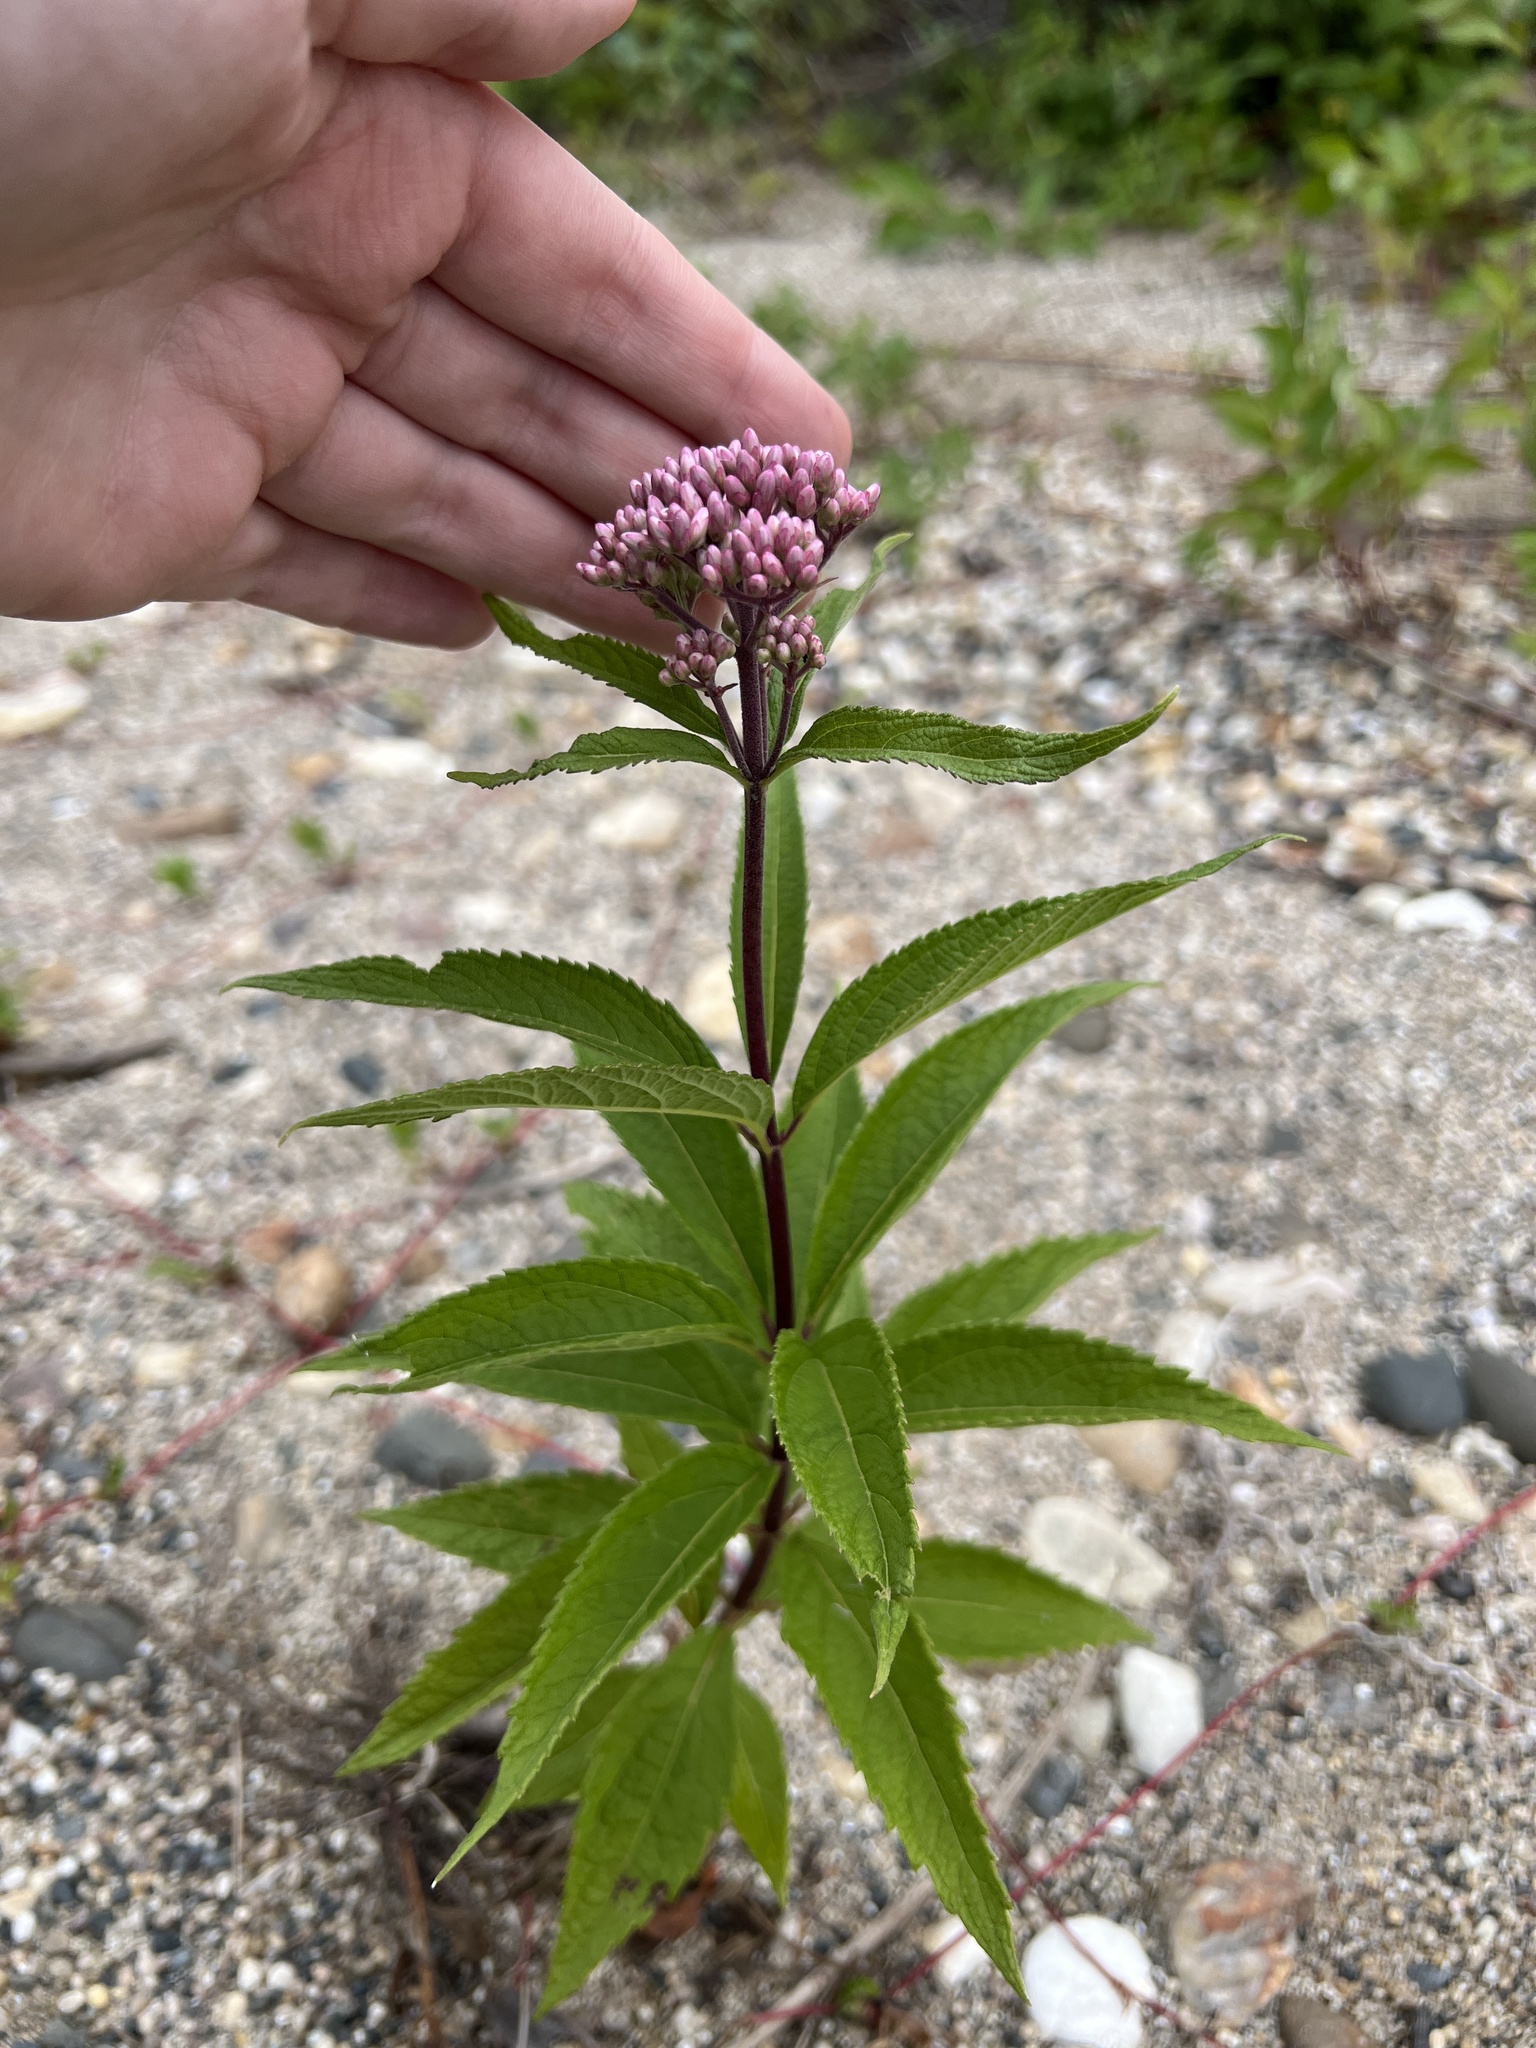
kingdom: Plantae
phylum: Tracheophyta
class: Magnoliopsida
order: Asterales
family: Asteraceae
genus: Eutrochium
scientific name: Eutrochium maculatum
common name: Spotted joe pye weed
